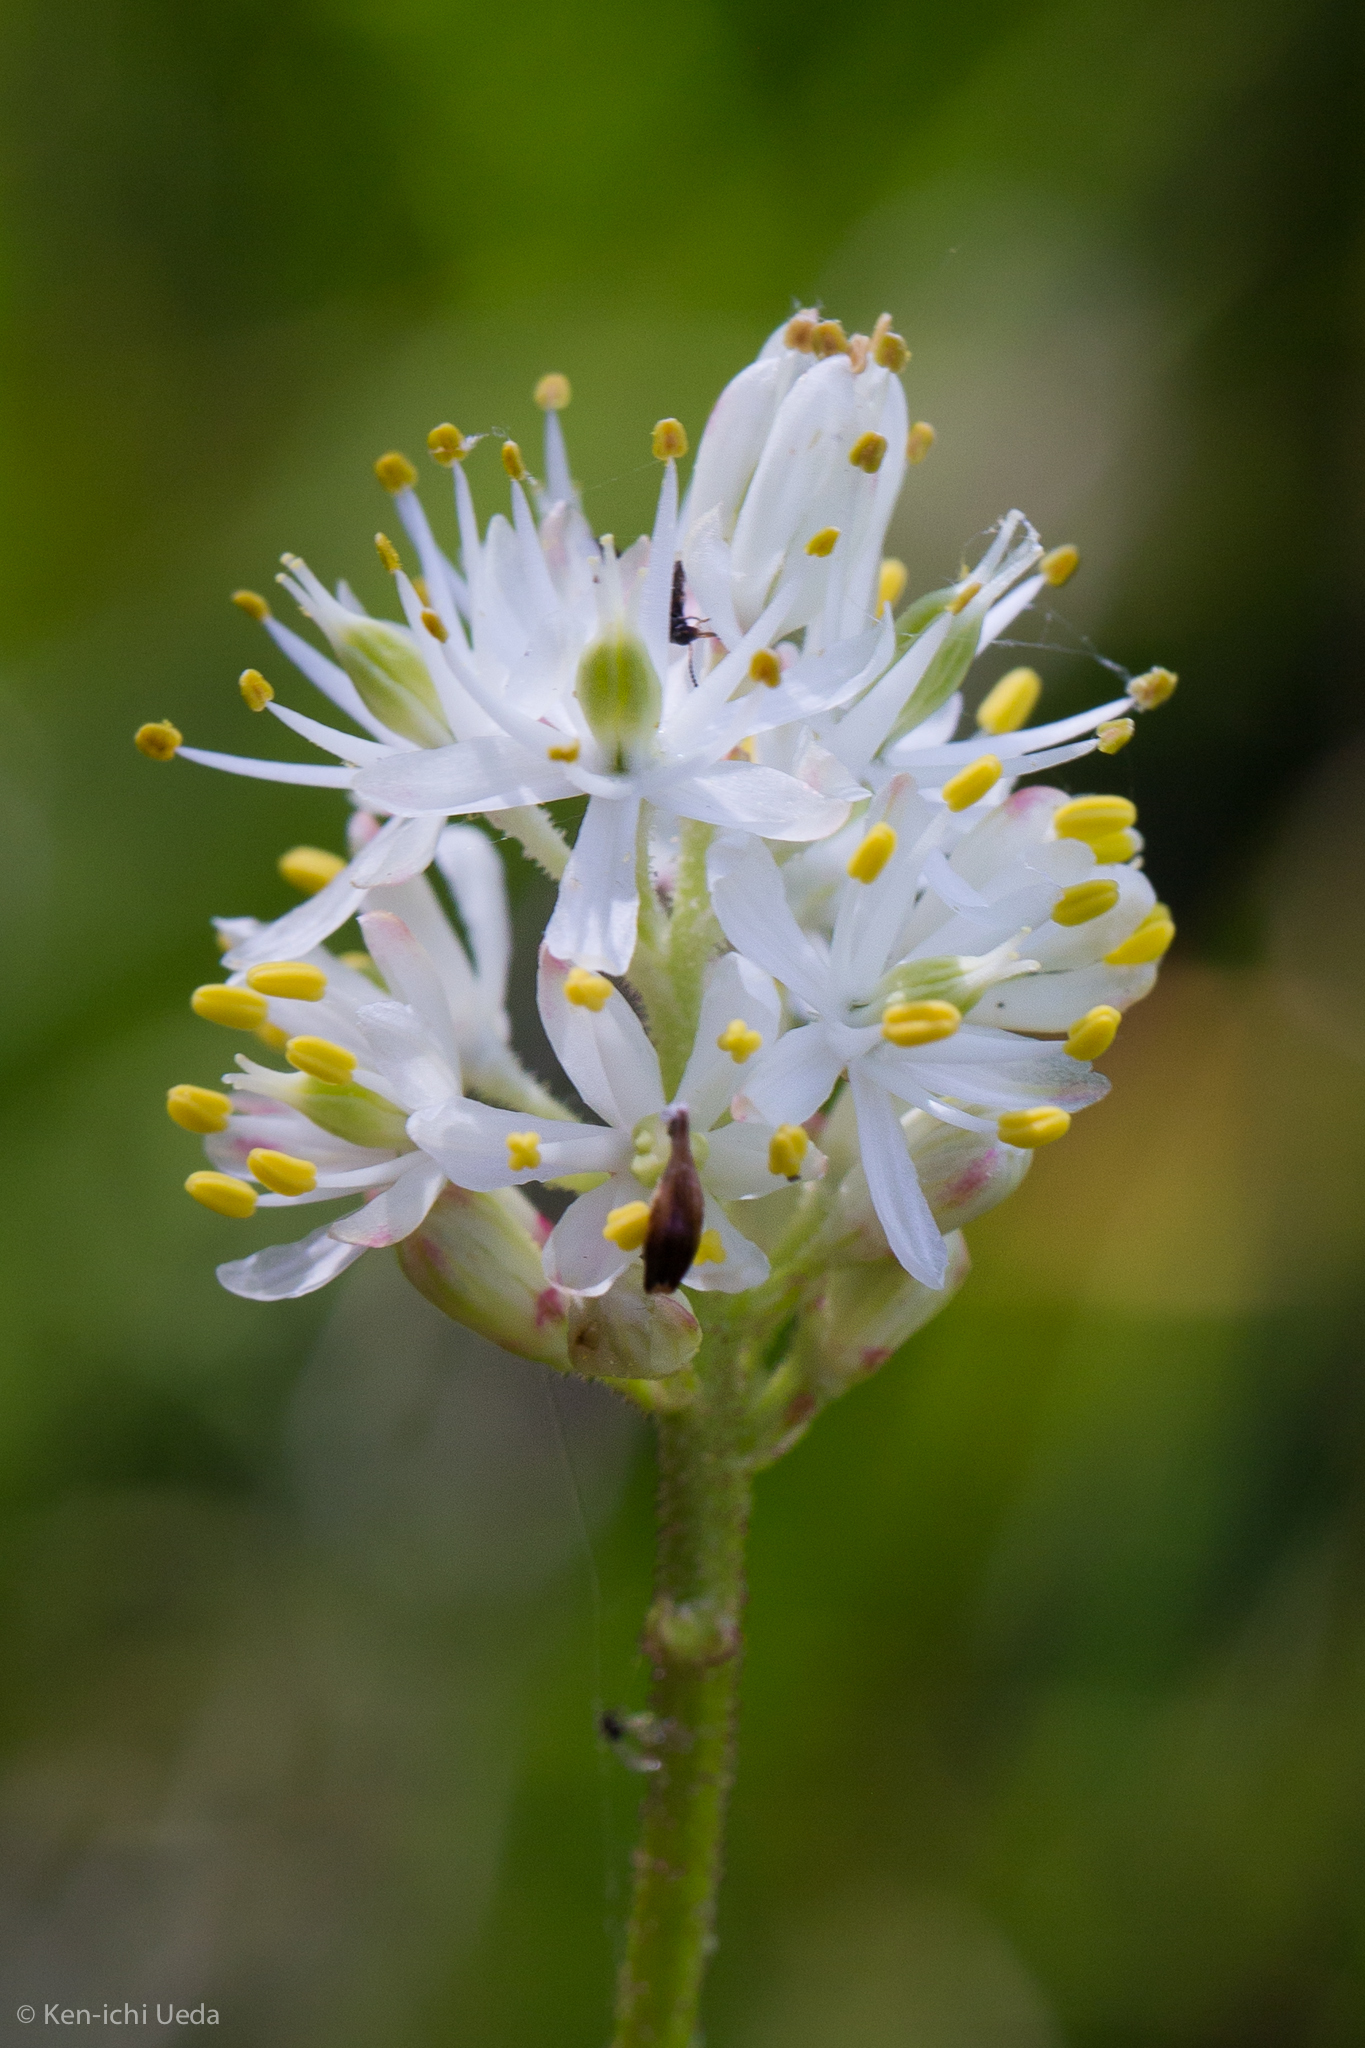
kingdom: Plantae
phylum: Tracheophyta
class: Liliopsida
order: Alismatales
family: Tofieldiaceae
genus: Triantha
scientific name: Triantha occidentalis
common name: Western false asphodel
